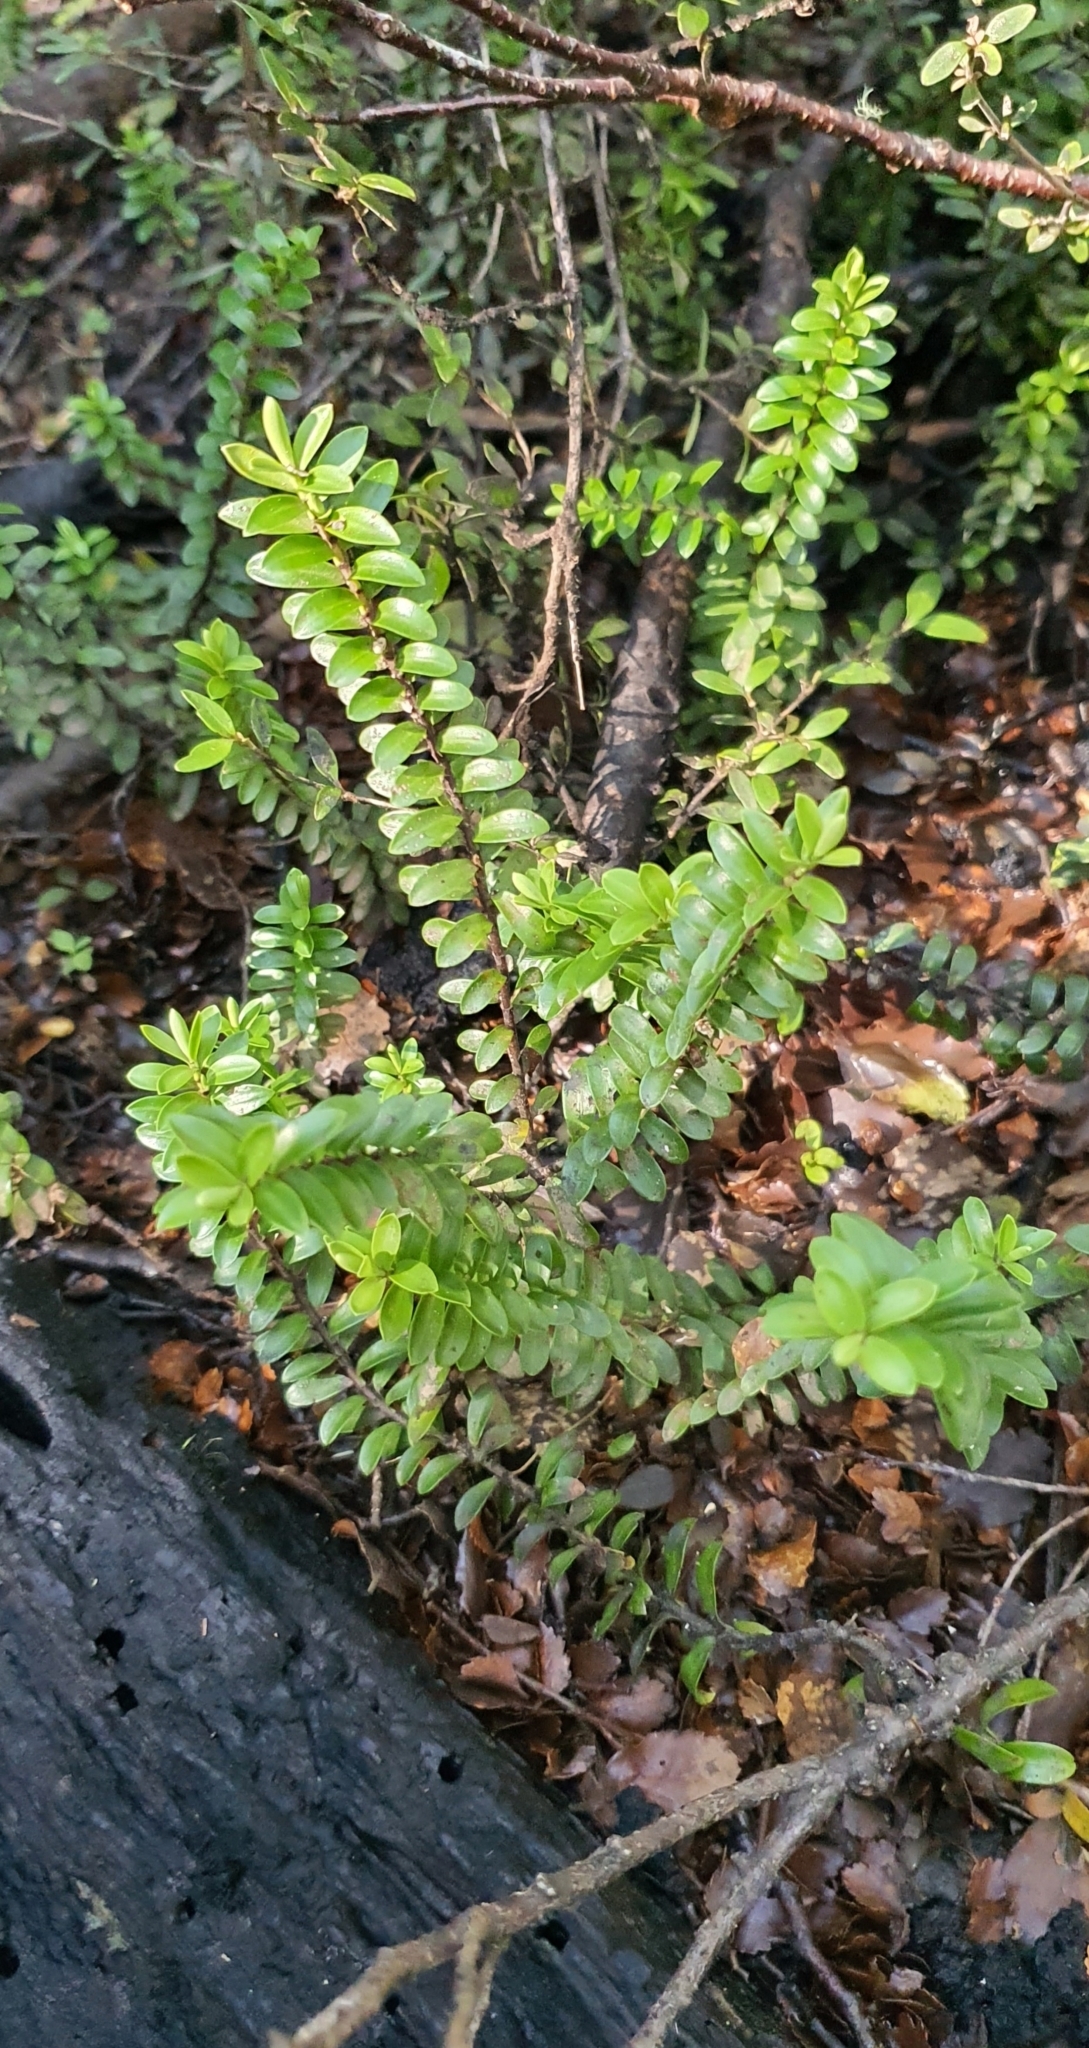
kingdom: Plantae
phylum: Tracheophyta
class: Magnoliopsida
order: Lamiales
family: Plantaginaceae
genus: Veronica
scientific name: Veronica vernicosa
